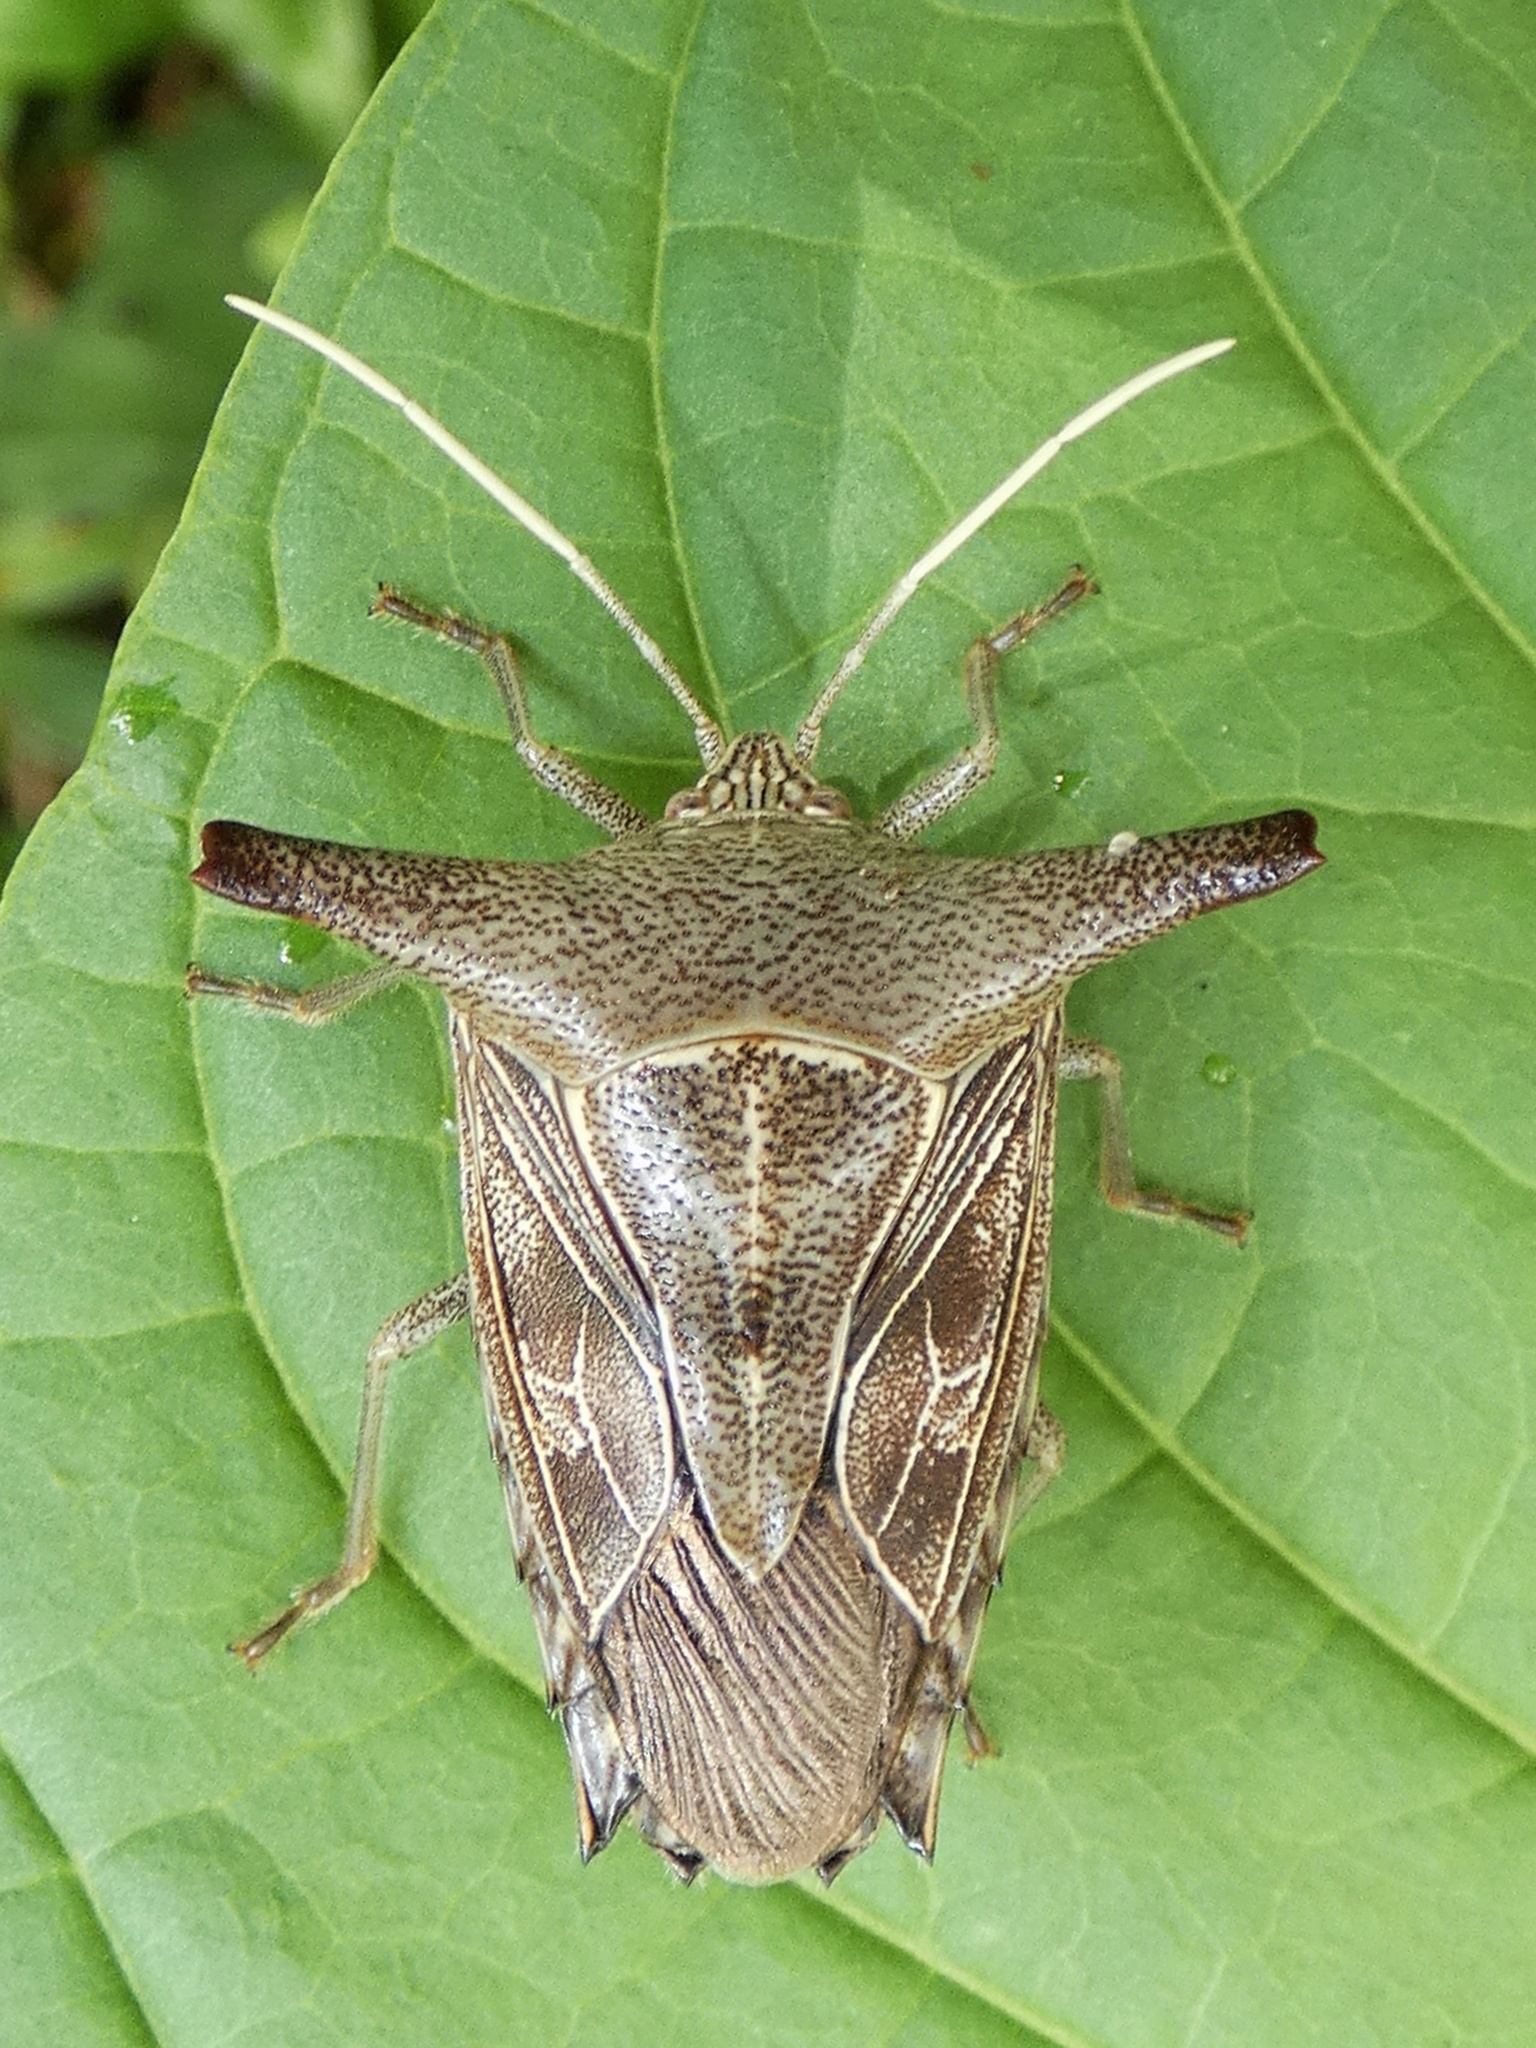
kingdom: Animalia
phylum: Arthropoda
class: Insecta
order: Hemiptera
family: Pentatomidae
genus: Edessa
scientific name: Edessa
